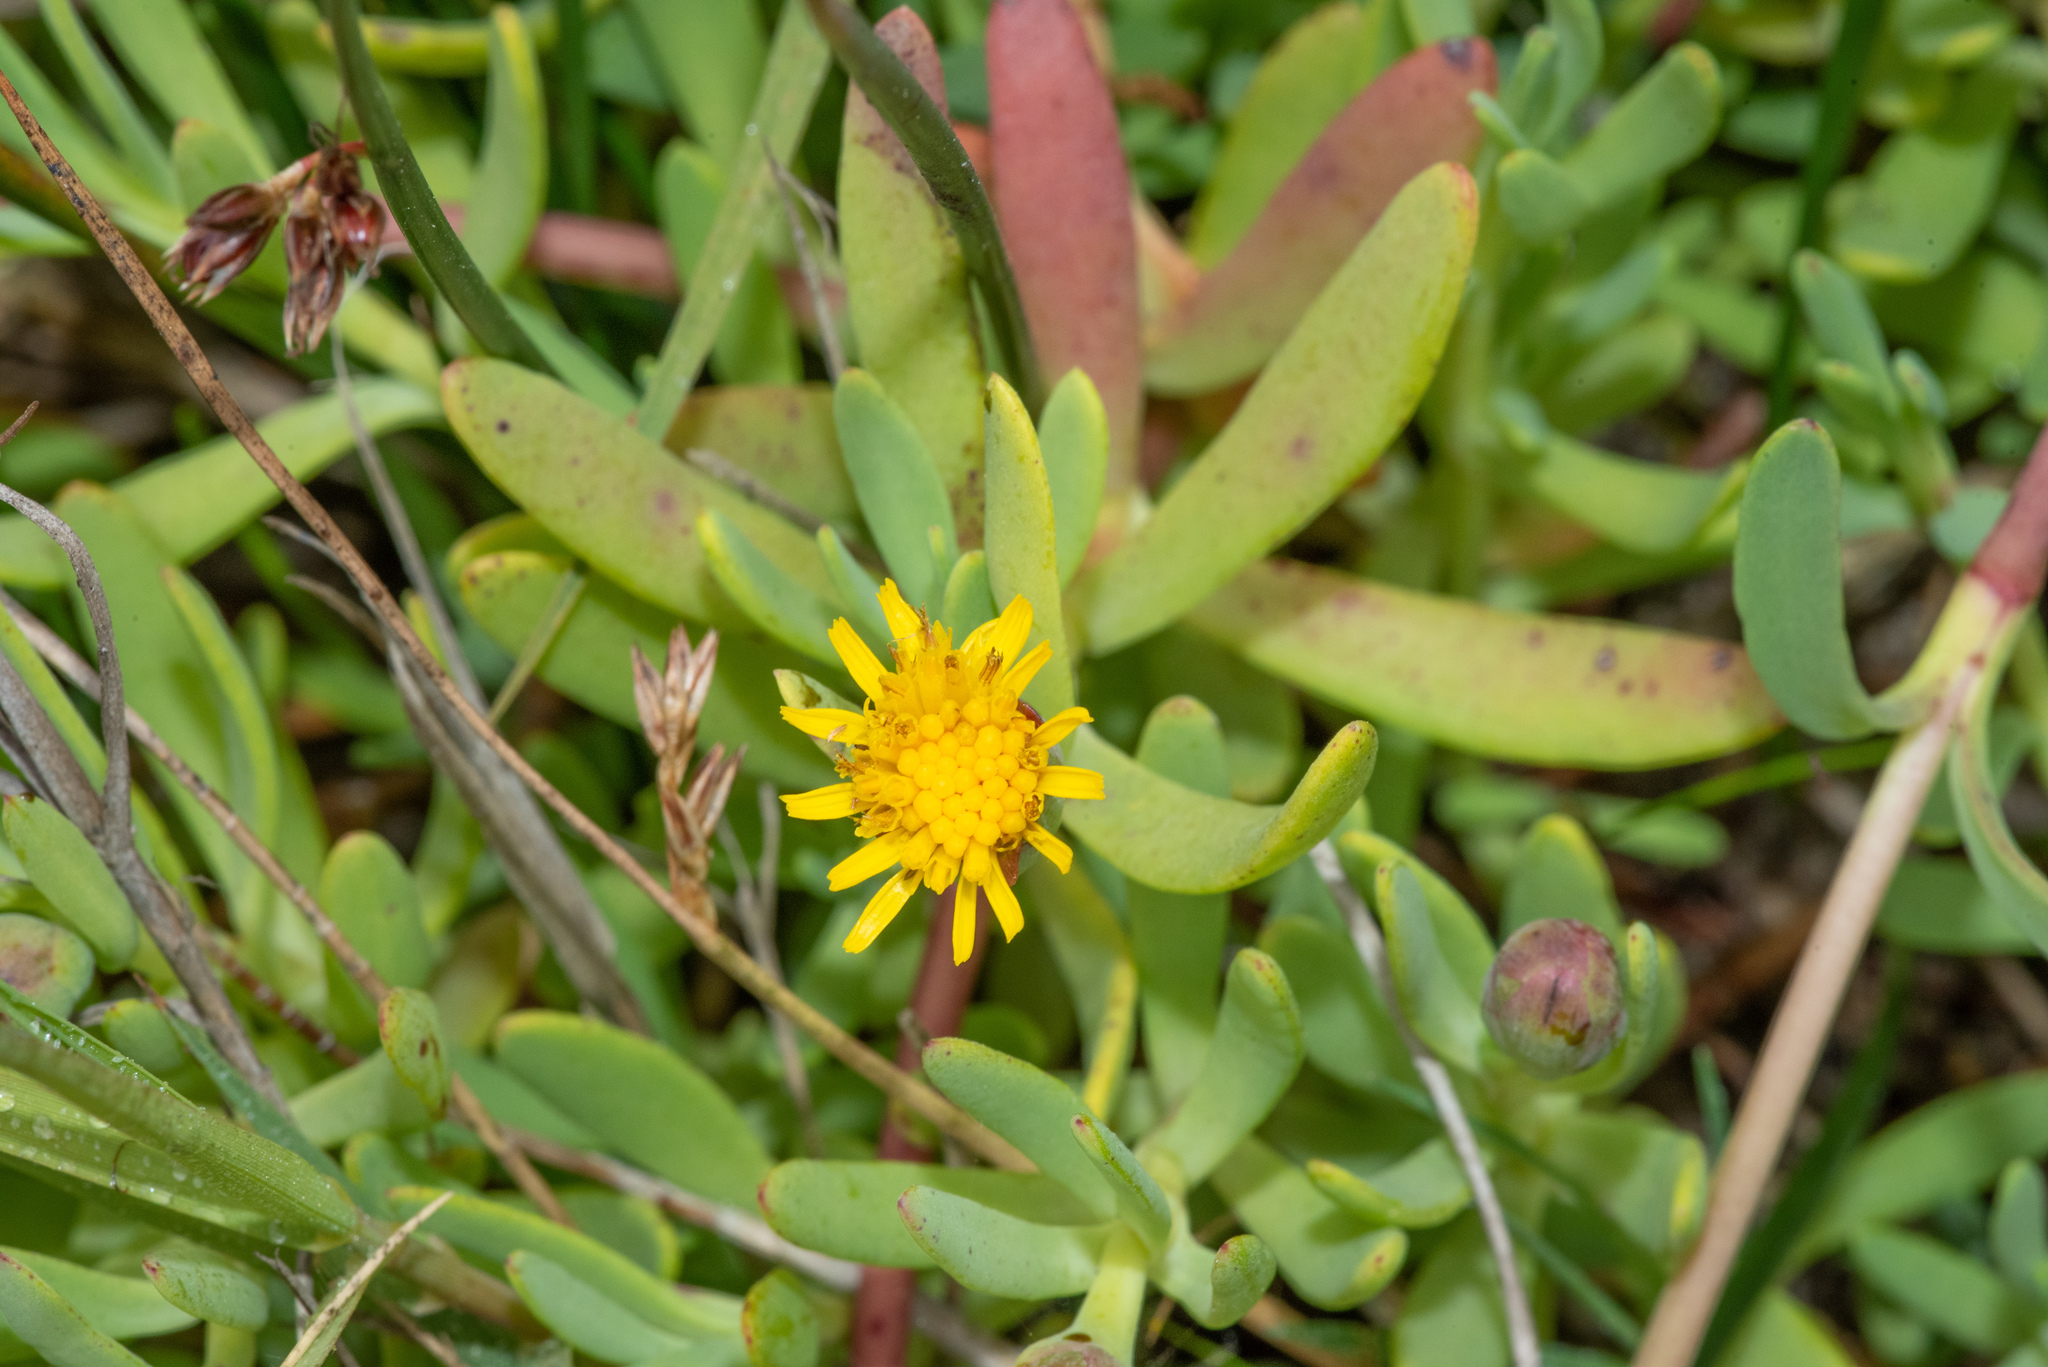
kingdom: Plantae
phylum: Tracheophyta
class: Magnoliopsida
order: Asterales
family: Asteraceae
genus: Jaumea
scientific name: Jaumea carnosa
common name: Fleshy jaumea
